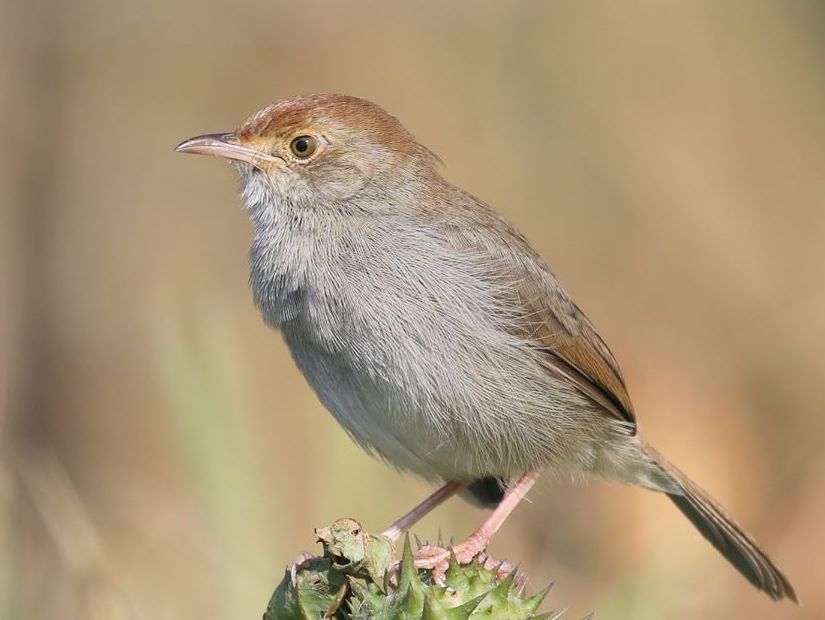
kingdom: Animalia
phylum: Chordata
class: Aves
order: Passeriformes
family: Cisticolidae
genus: Cisticola
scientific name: Cisticola fulvicapilla
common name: Neddicky
